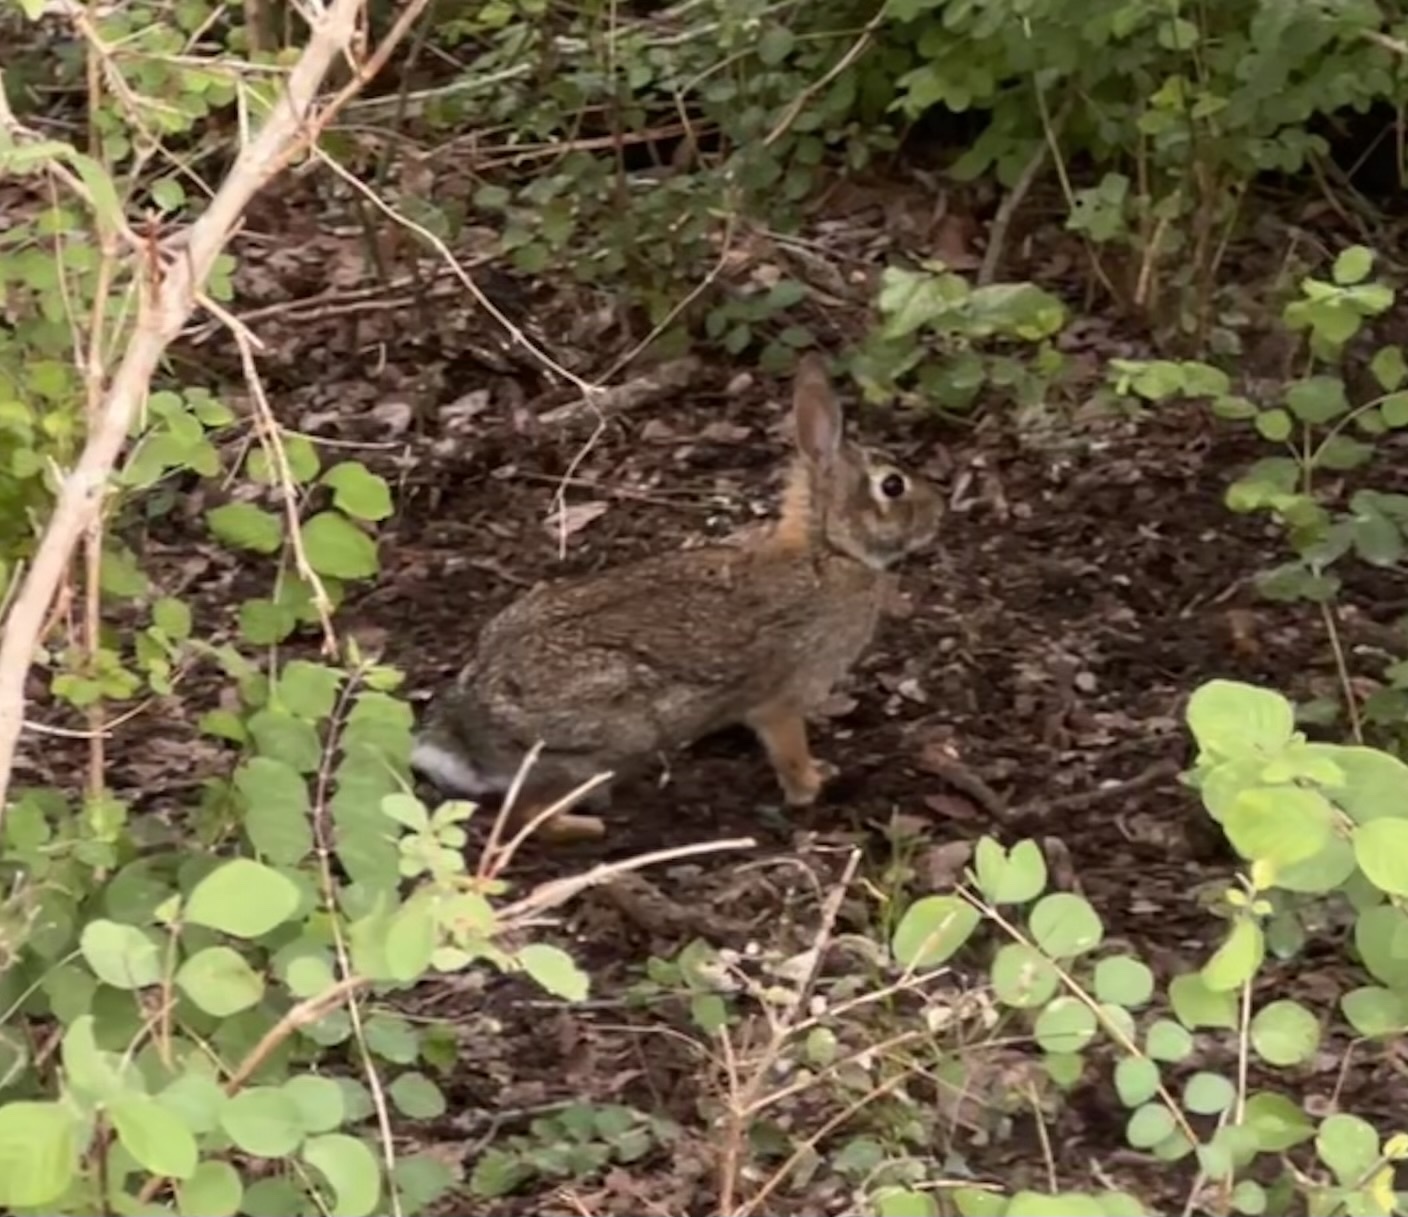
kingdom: Animalia
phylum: Chordata
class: Mammalia
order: Lagomorpha
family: Leporidae
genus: Sylvilagus
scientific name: Sylvilagus floridanus
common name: Eastern cottontail
